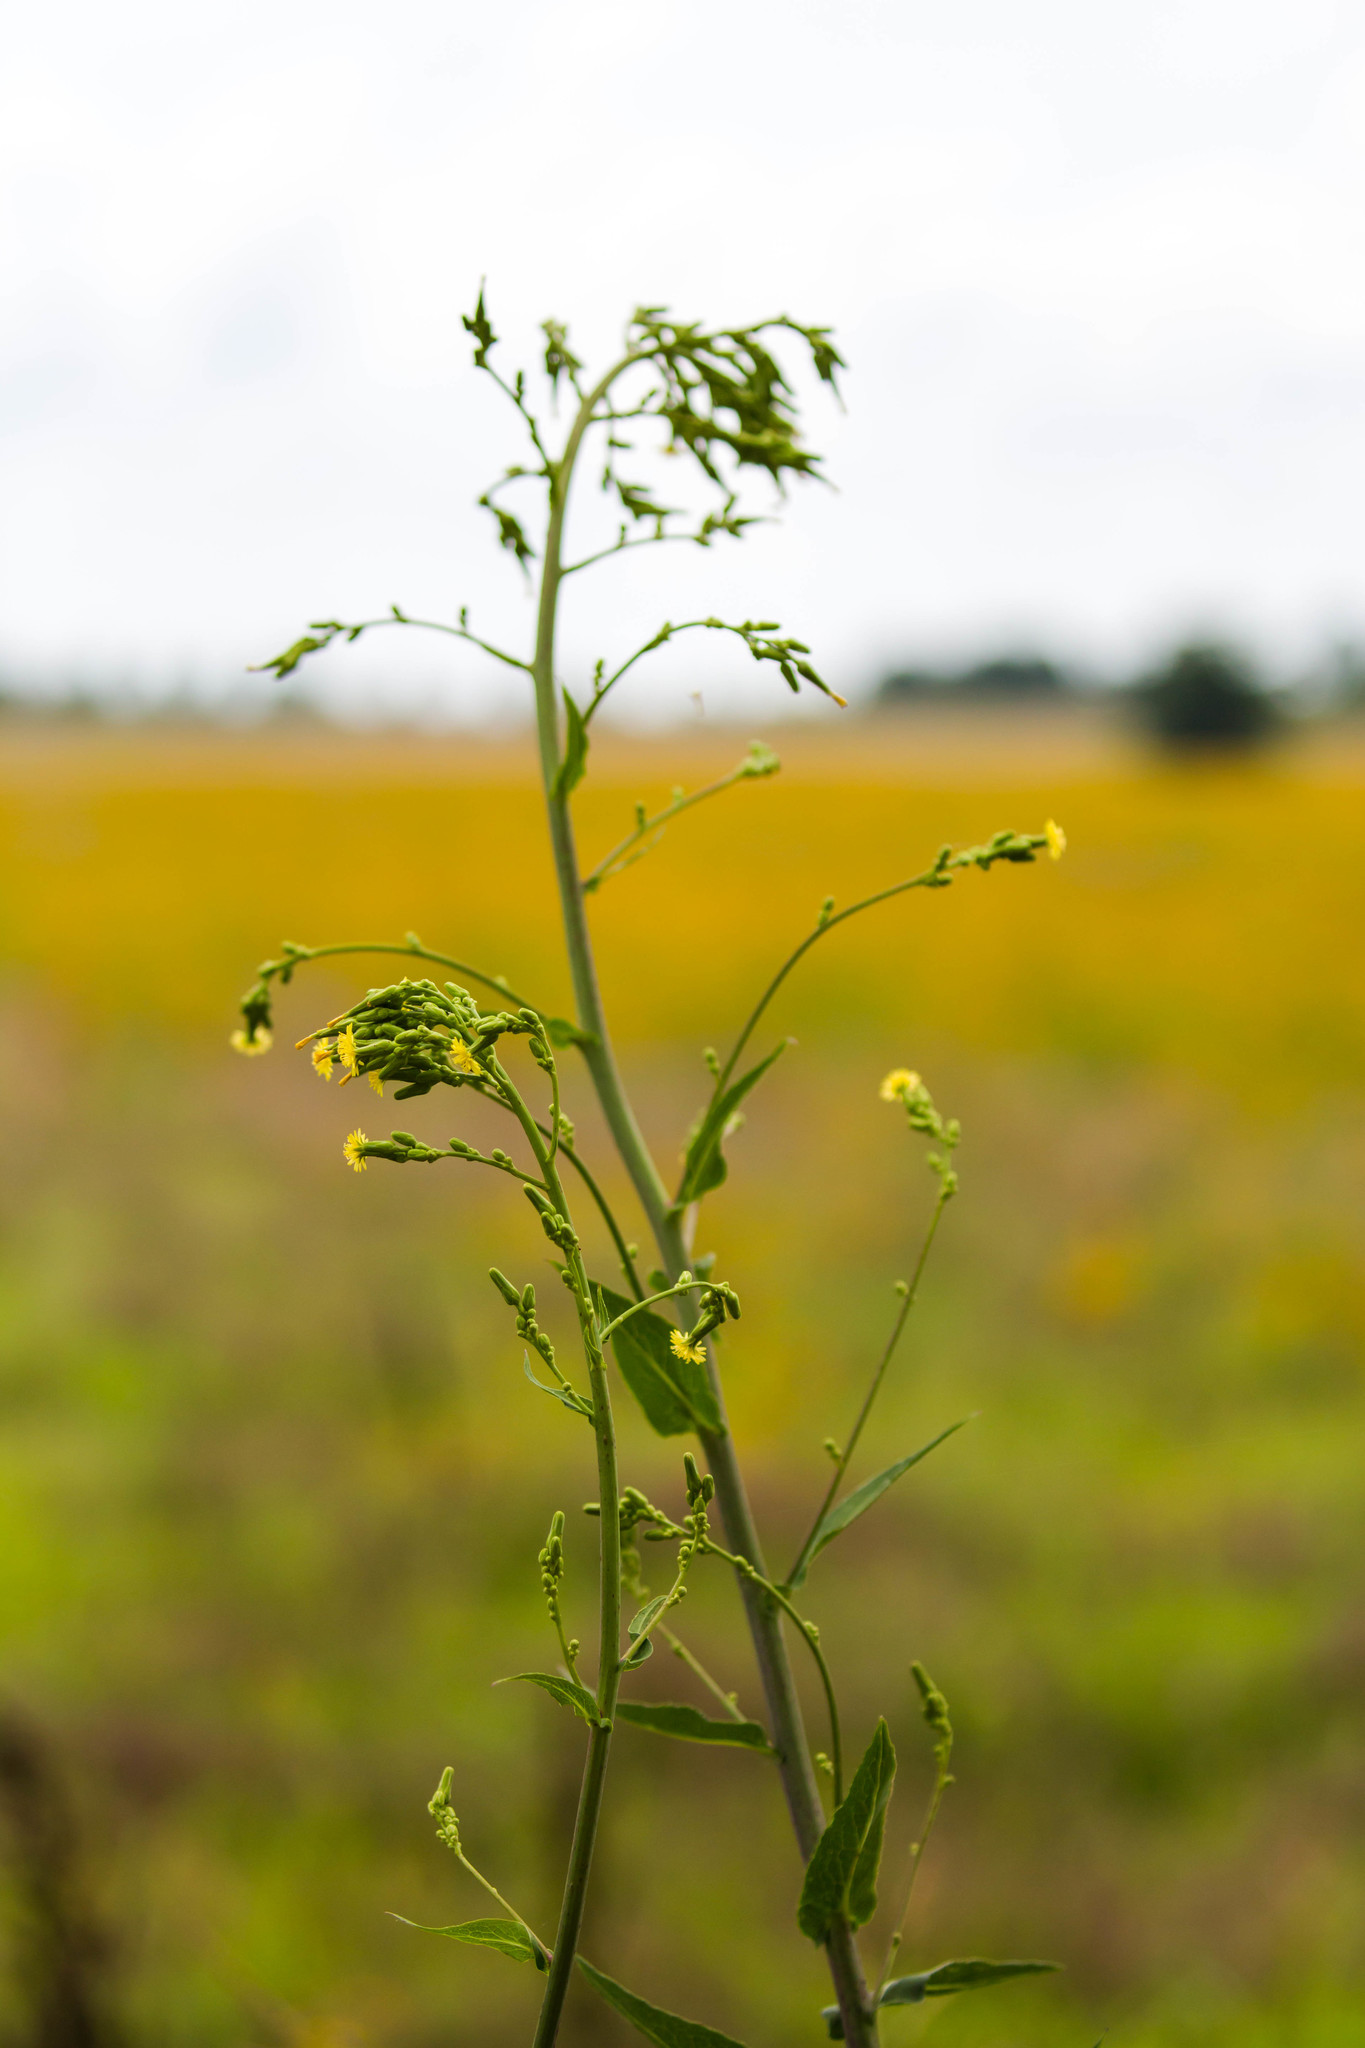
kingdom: Plantae
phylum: Tracheophyta
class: Magnoliopsida
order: Asterales
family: Asteraceae
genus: Lactuca
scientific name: Lactuca canadensis
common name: Canada lettuce
